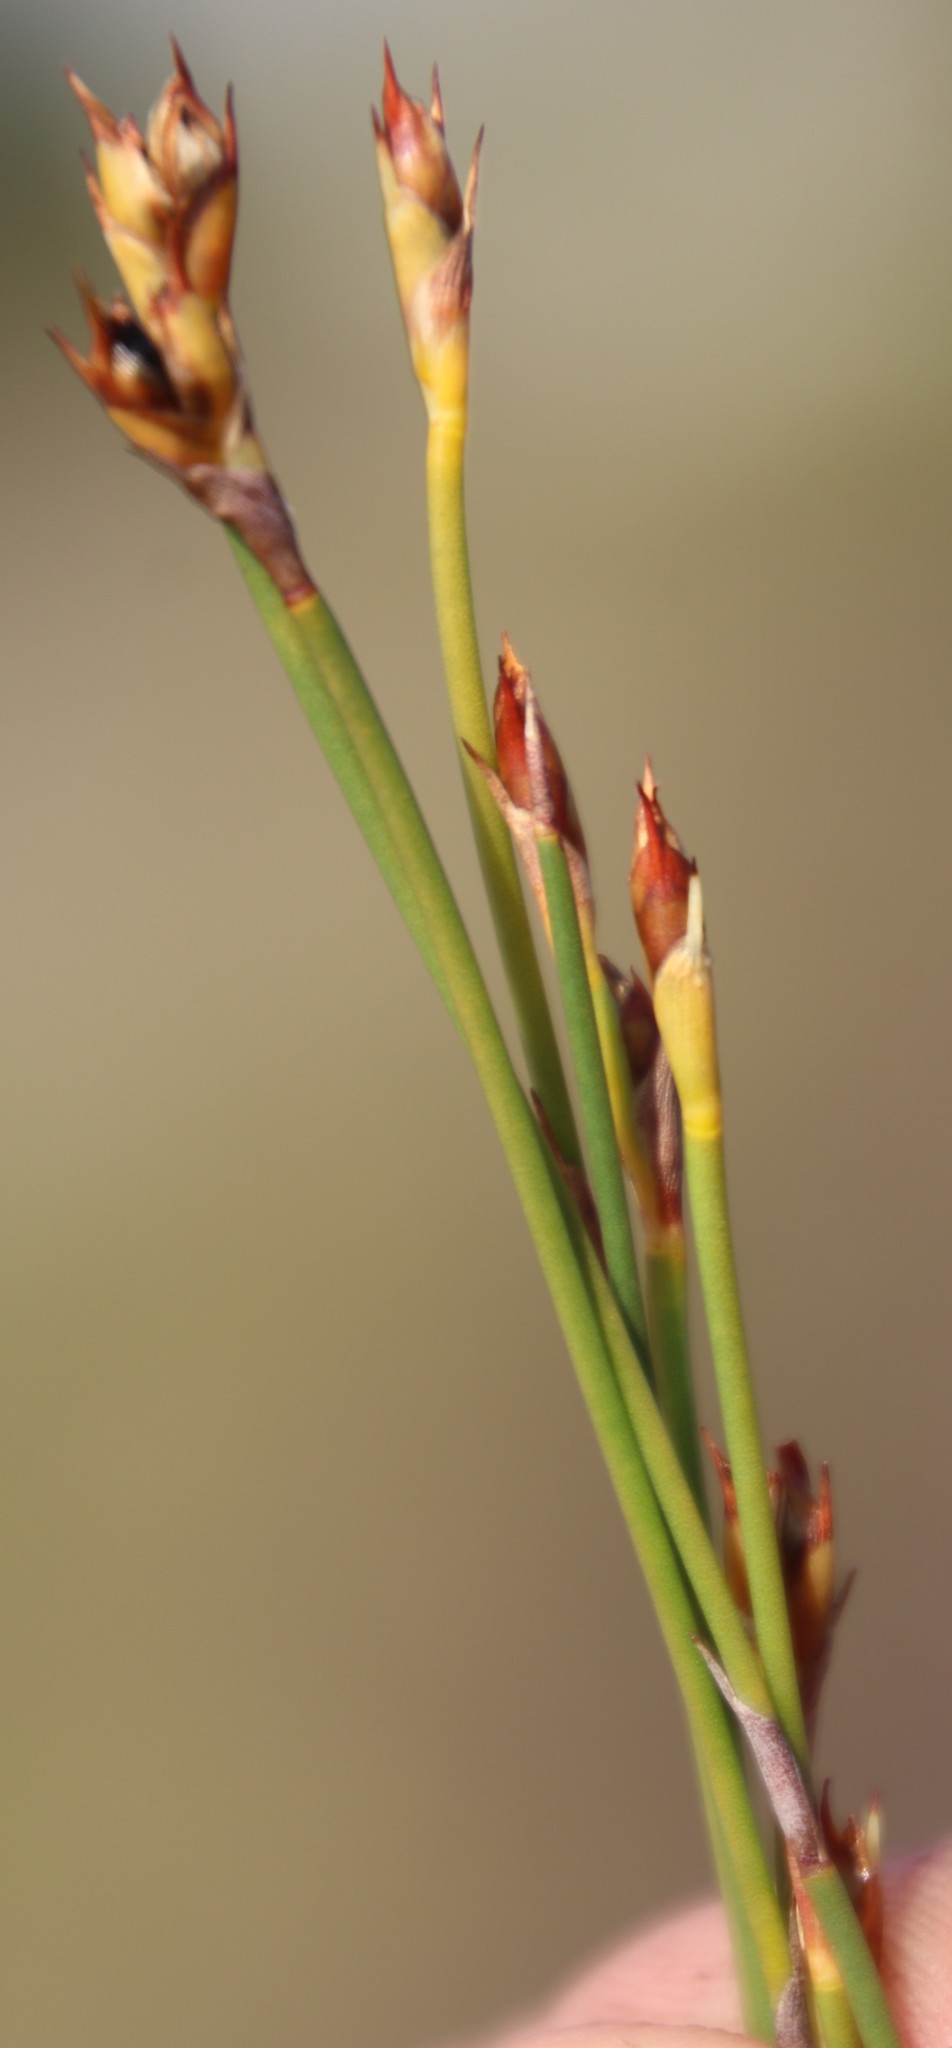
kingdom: Plantae
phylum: Tracheophyta
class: Liliopsida
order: Poales
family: Restionaceae
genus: Mastersiella
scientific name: Mastersiella digitata
